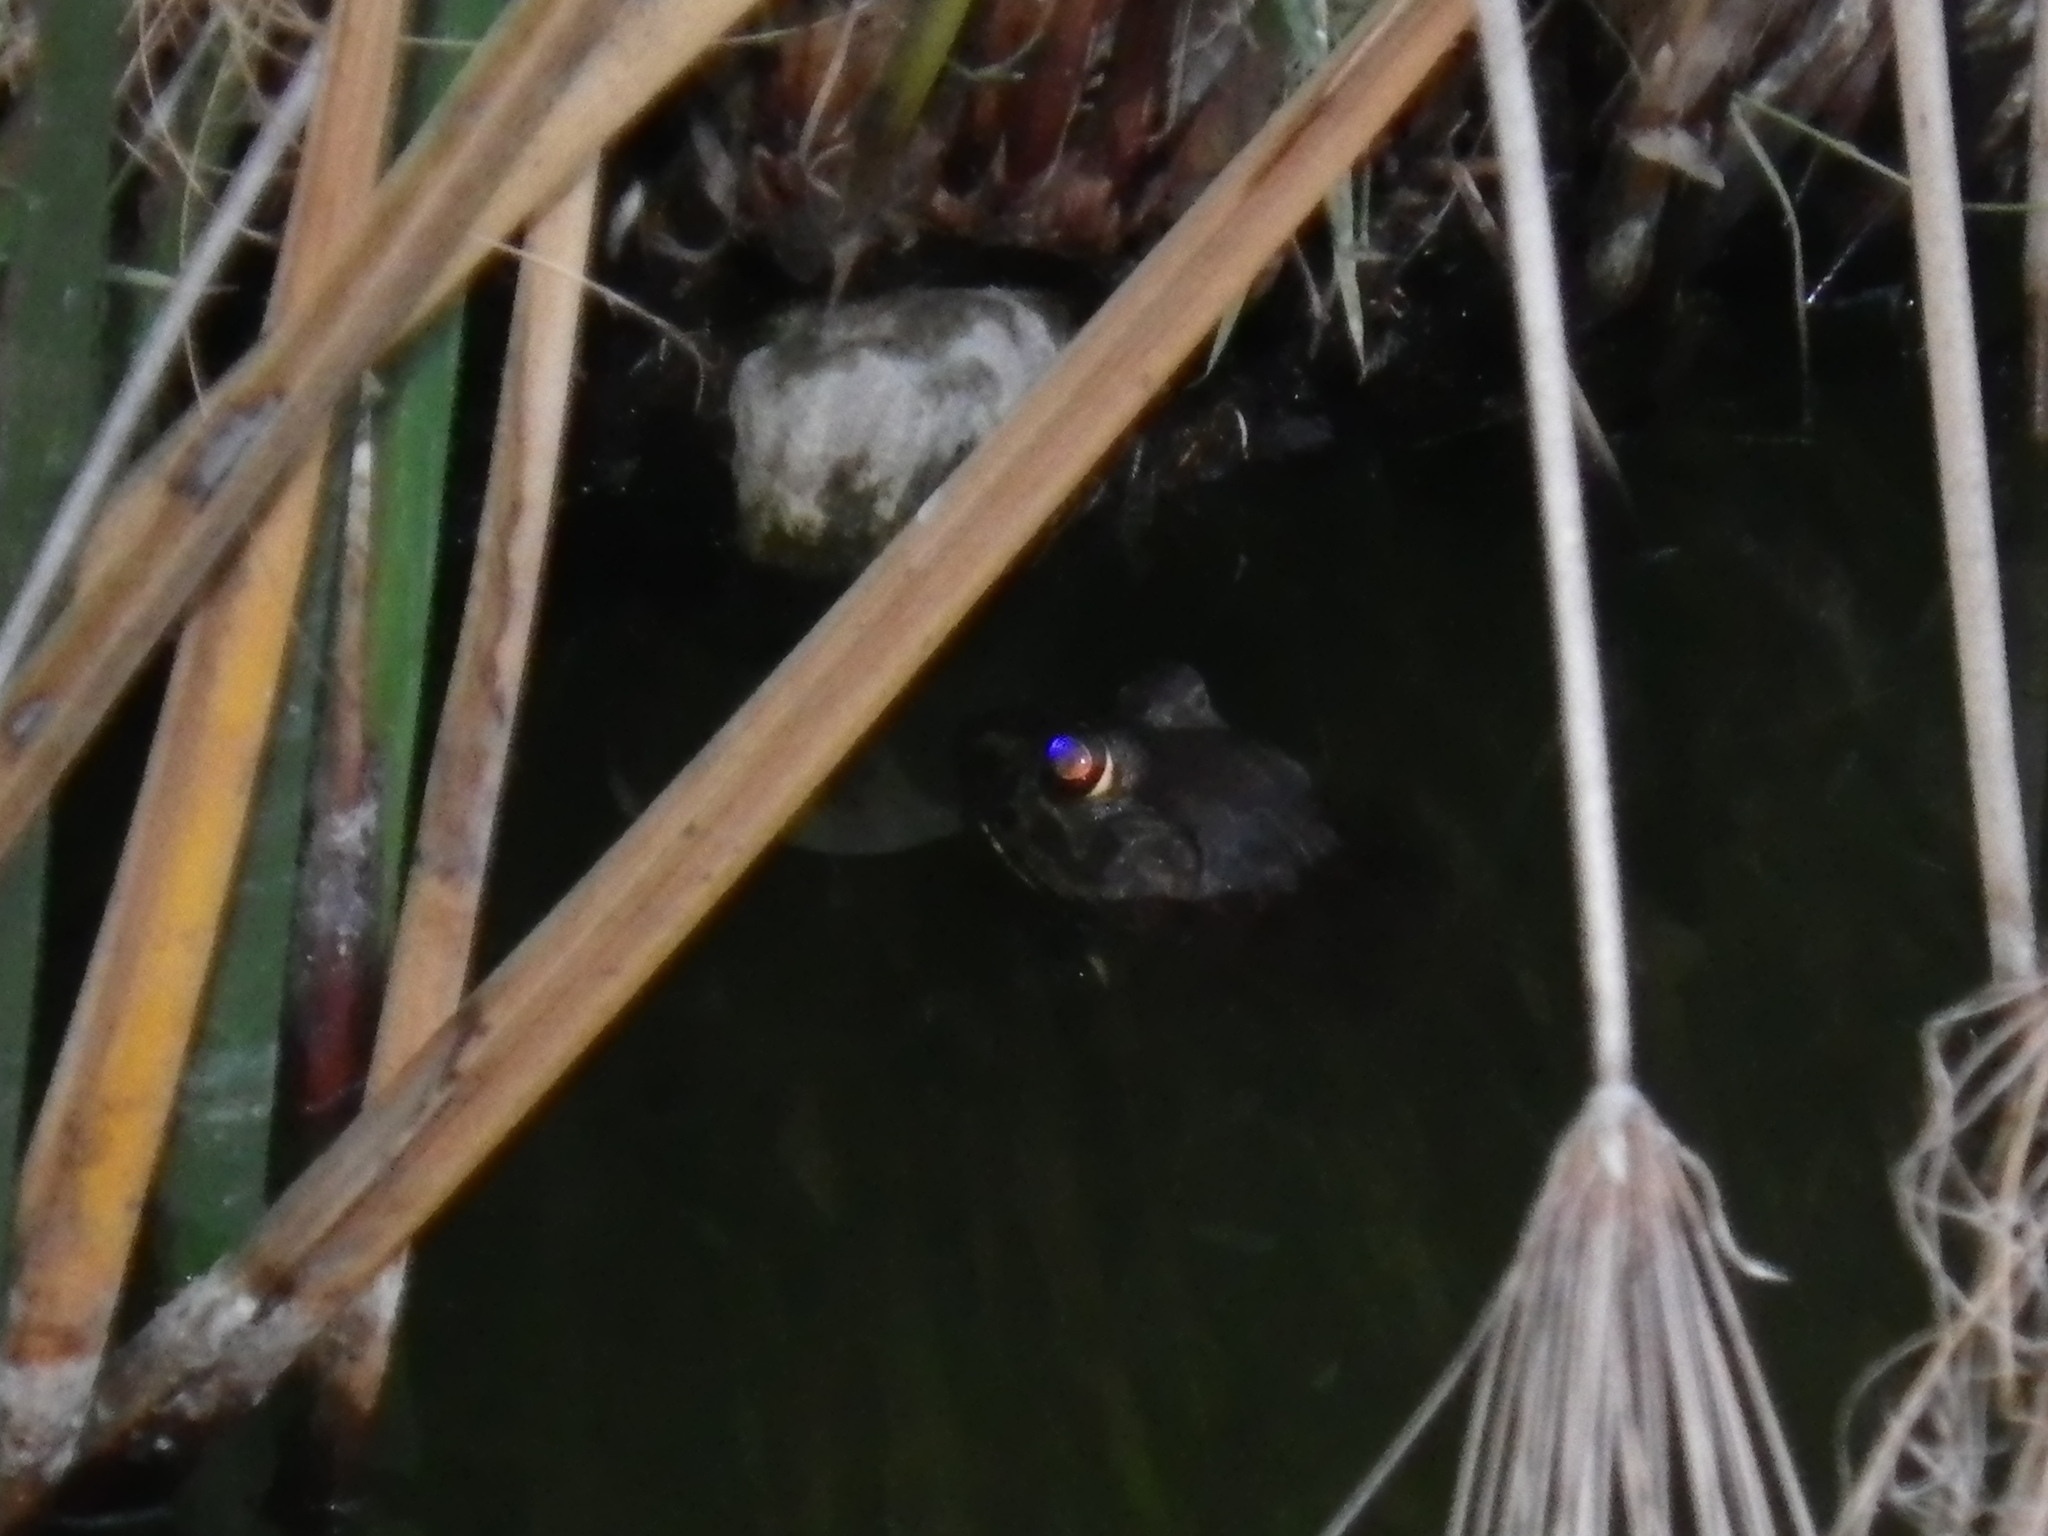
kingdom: Animalia
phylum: Chordata
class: Amphibia
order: Anura
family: Ranidae
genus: Lithobates
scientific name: Lithobates catesbeianus
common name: American bullfrog
